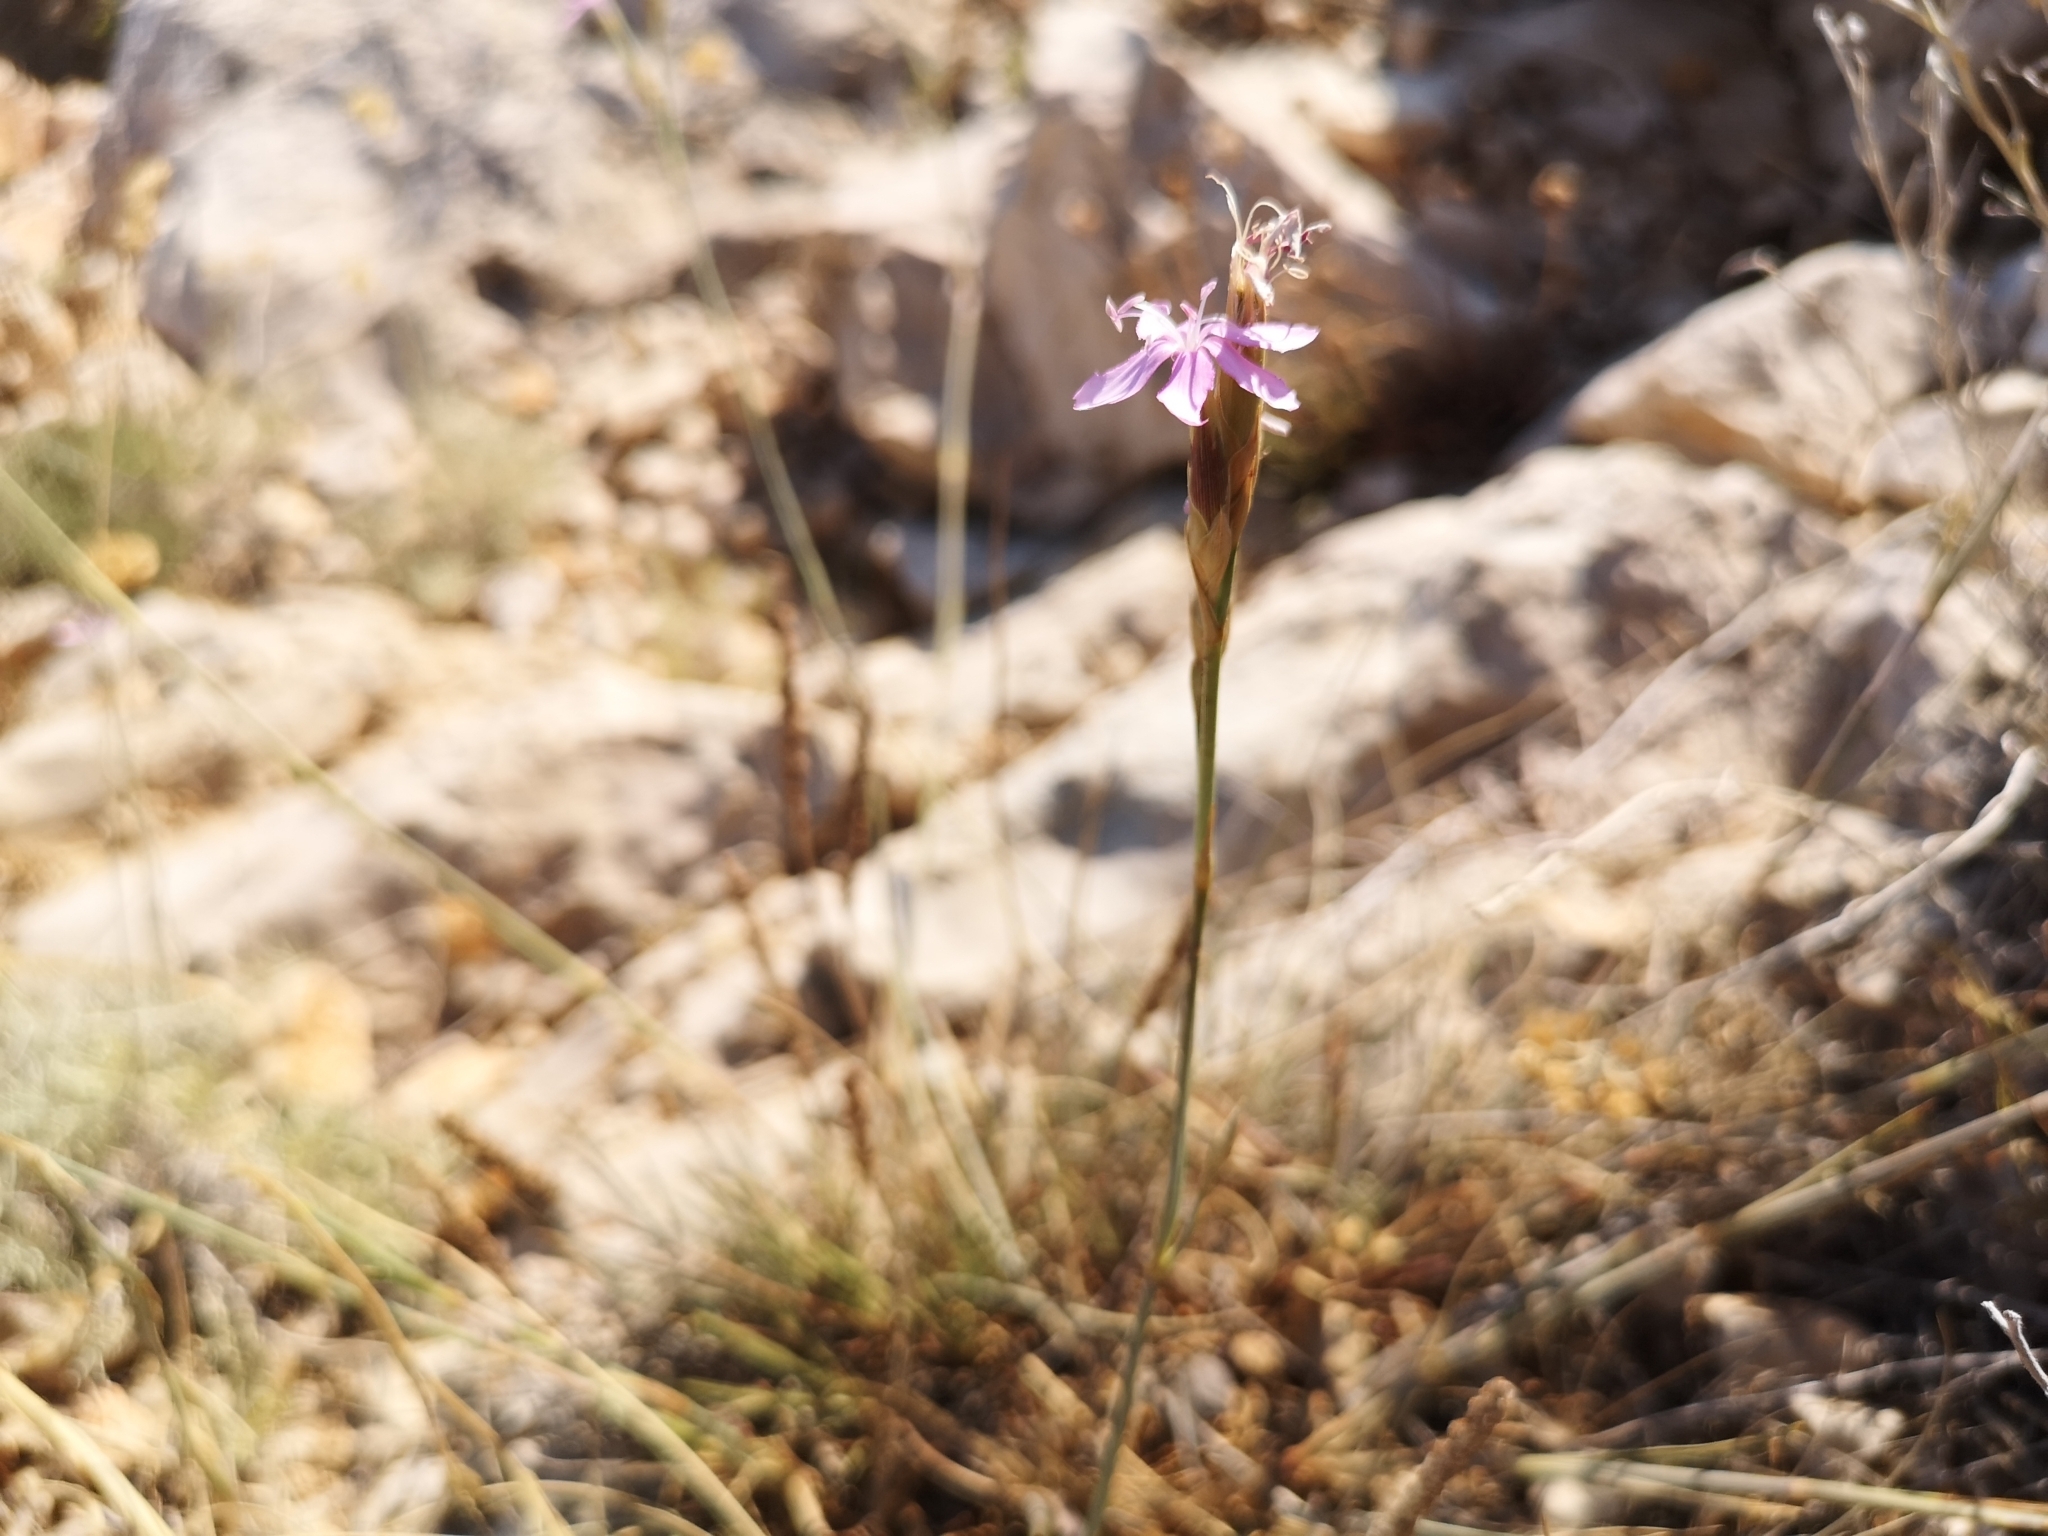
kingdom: Plantae
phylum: Tracheophyta
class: Magnoliopsida
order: Caryophyllales
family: Caryophyllaceae
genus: Dianthus
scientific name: Dianthus ciliatus
